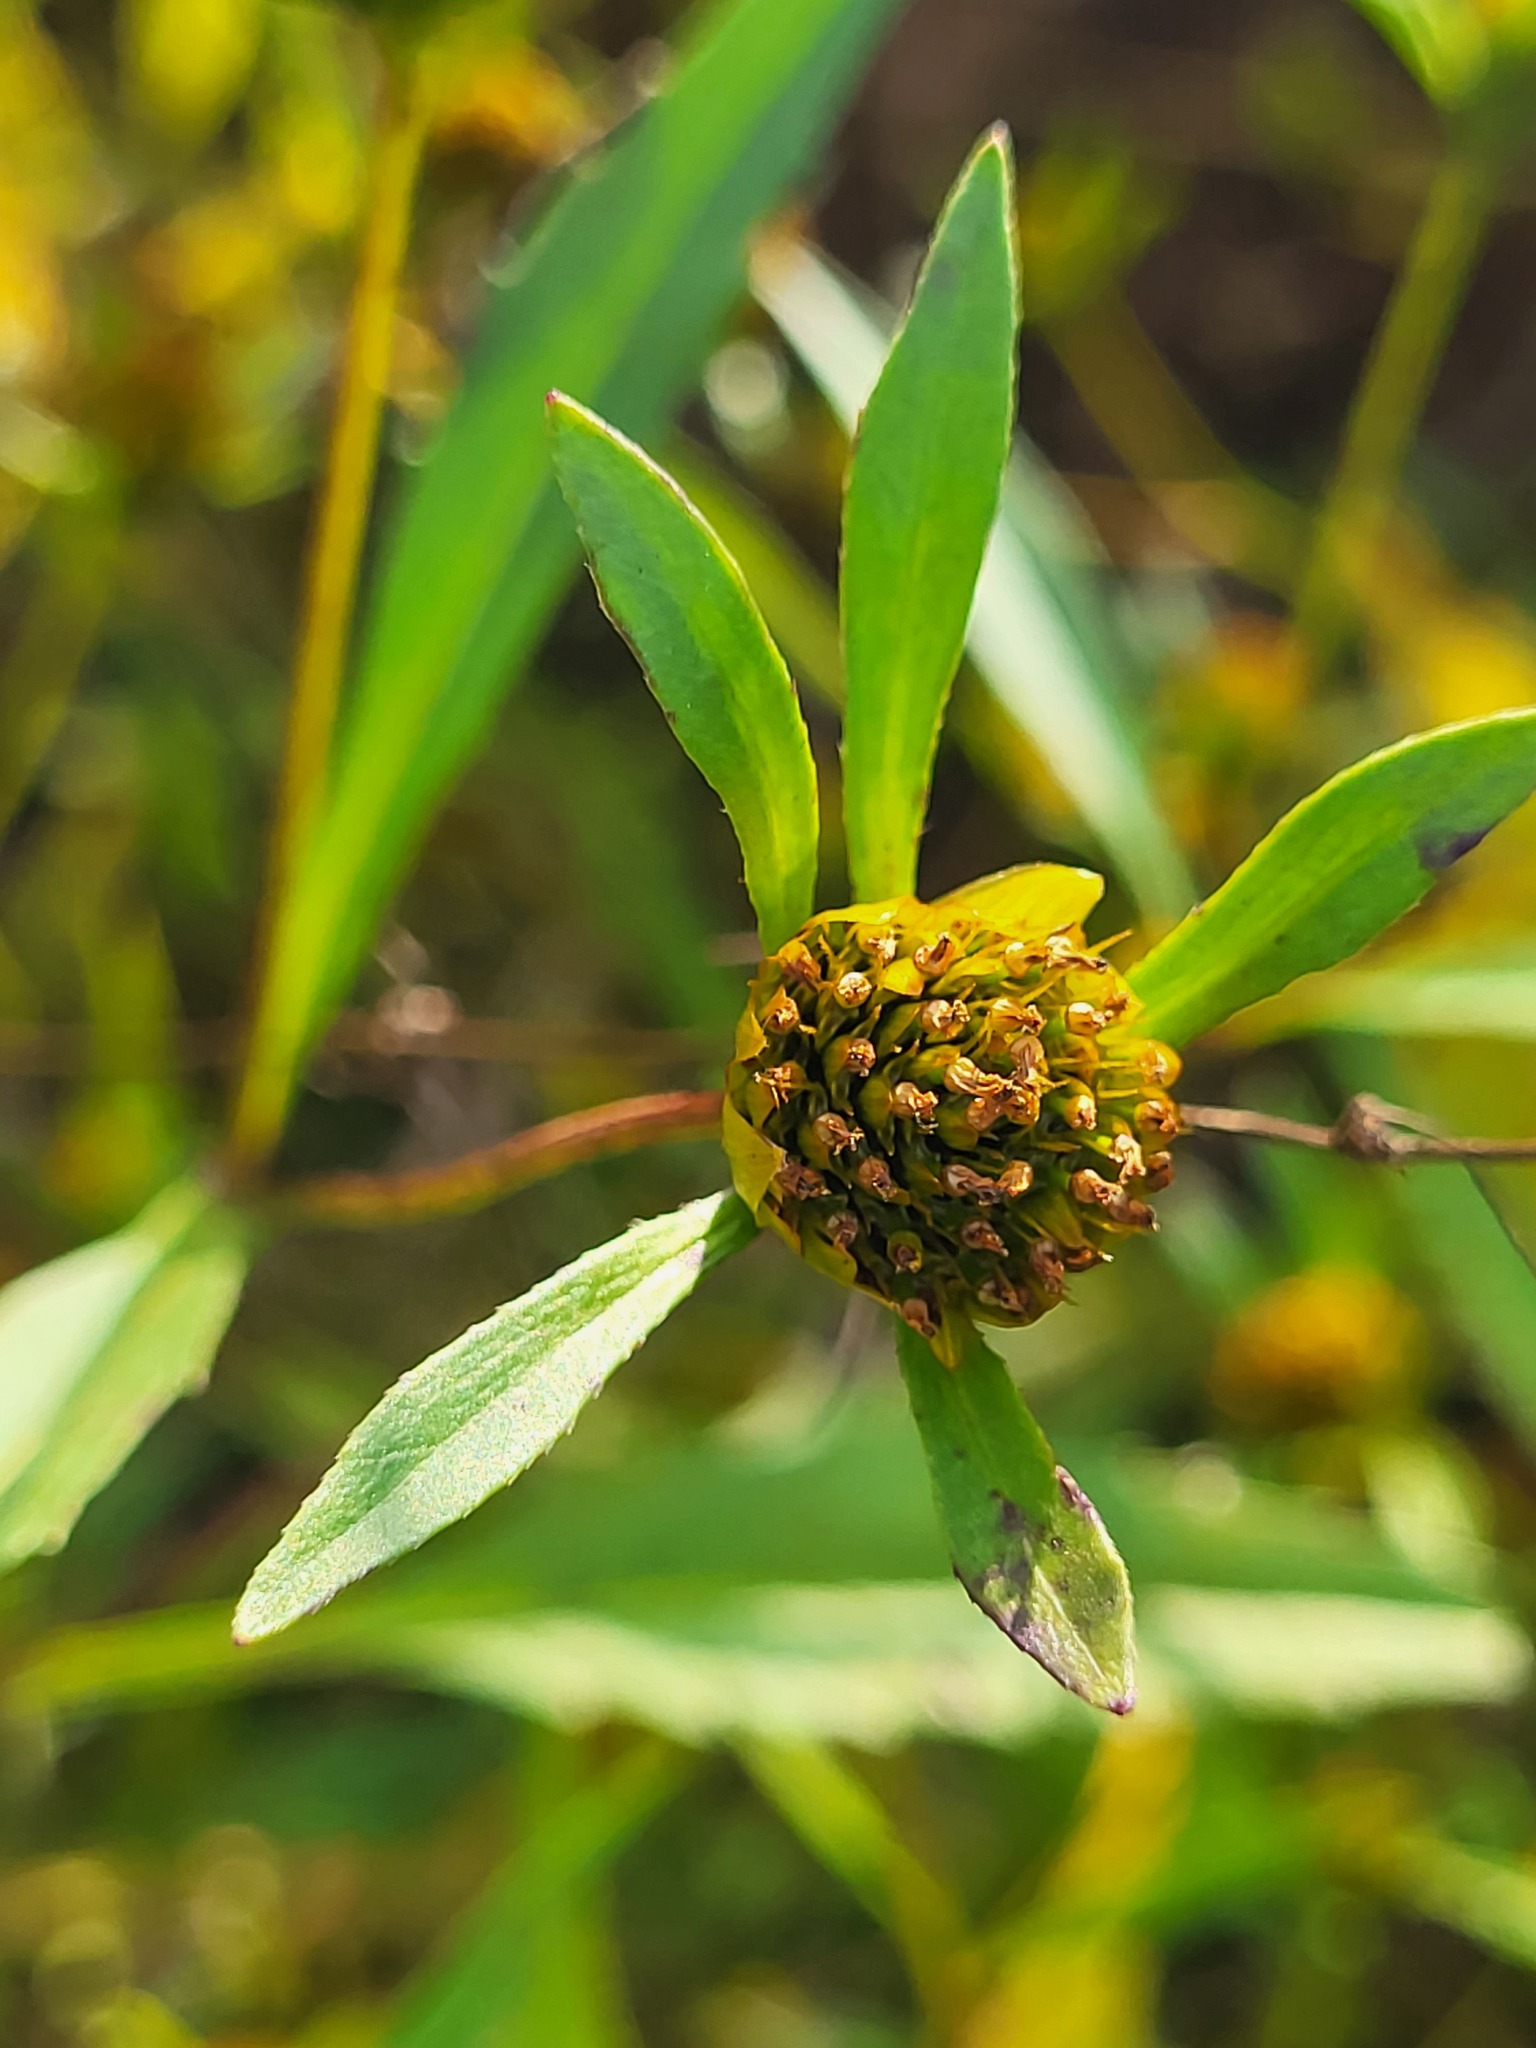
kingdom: Plantae
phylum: Tracheophyta
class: Magnoliopsida
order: Asterales
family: Asteraceae
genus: Bidens
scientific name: Bidens connata
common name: London bur-marigold
